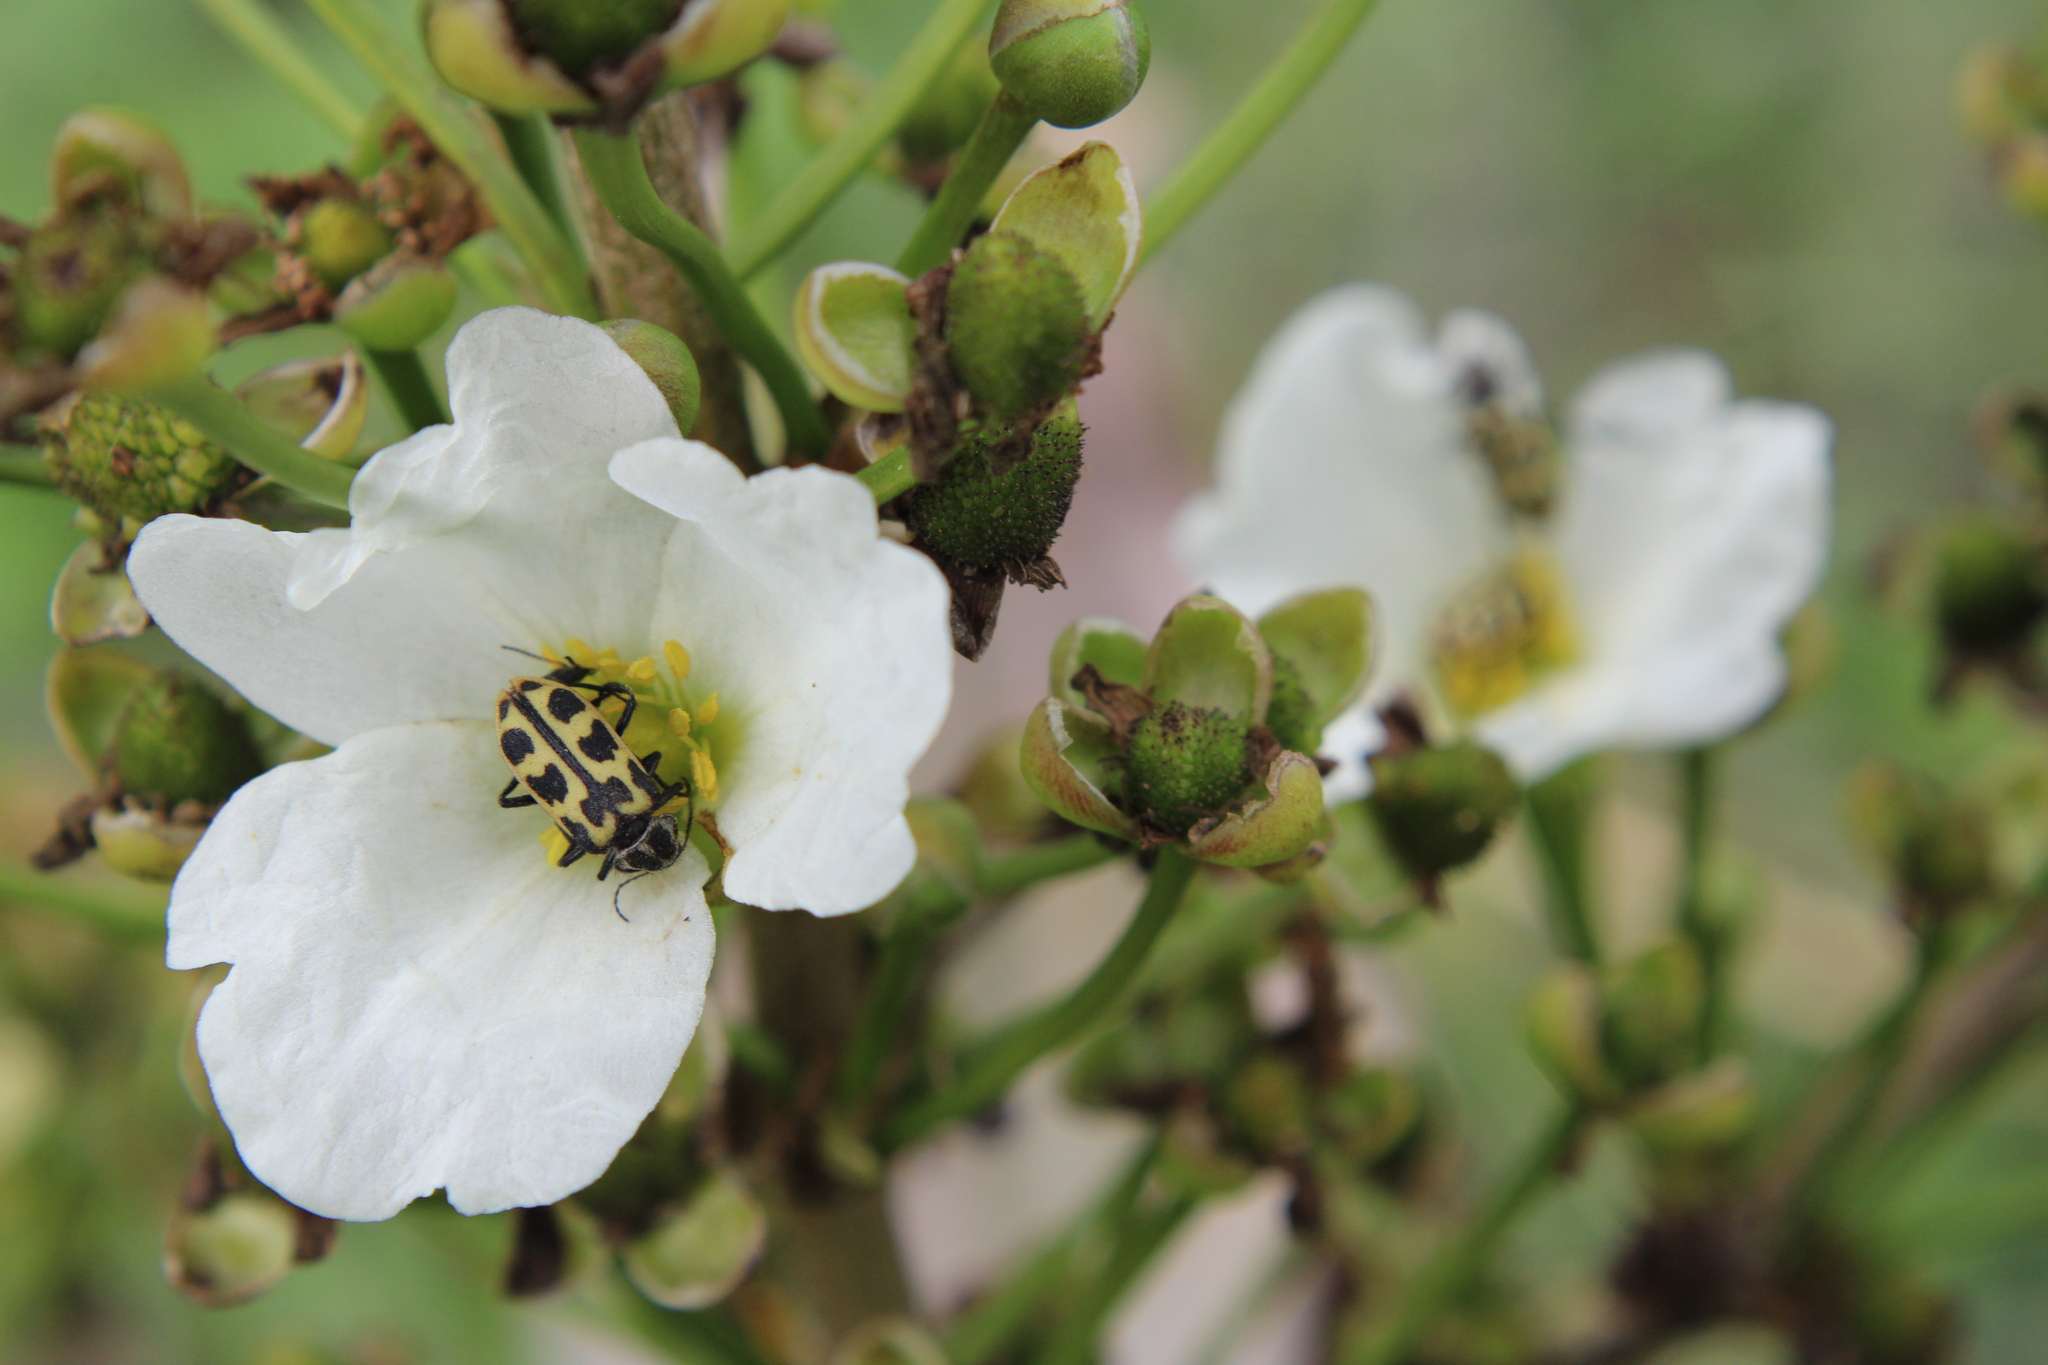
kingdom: Plantae
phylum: Tracheophyta
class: Liliopsida
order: Alismatales
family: Alismataceae
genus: Aquarius
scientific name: Aquarius grandiflorus
